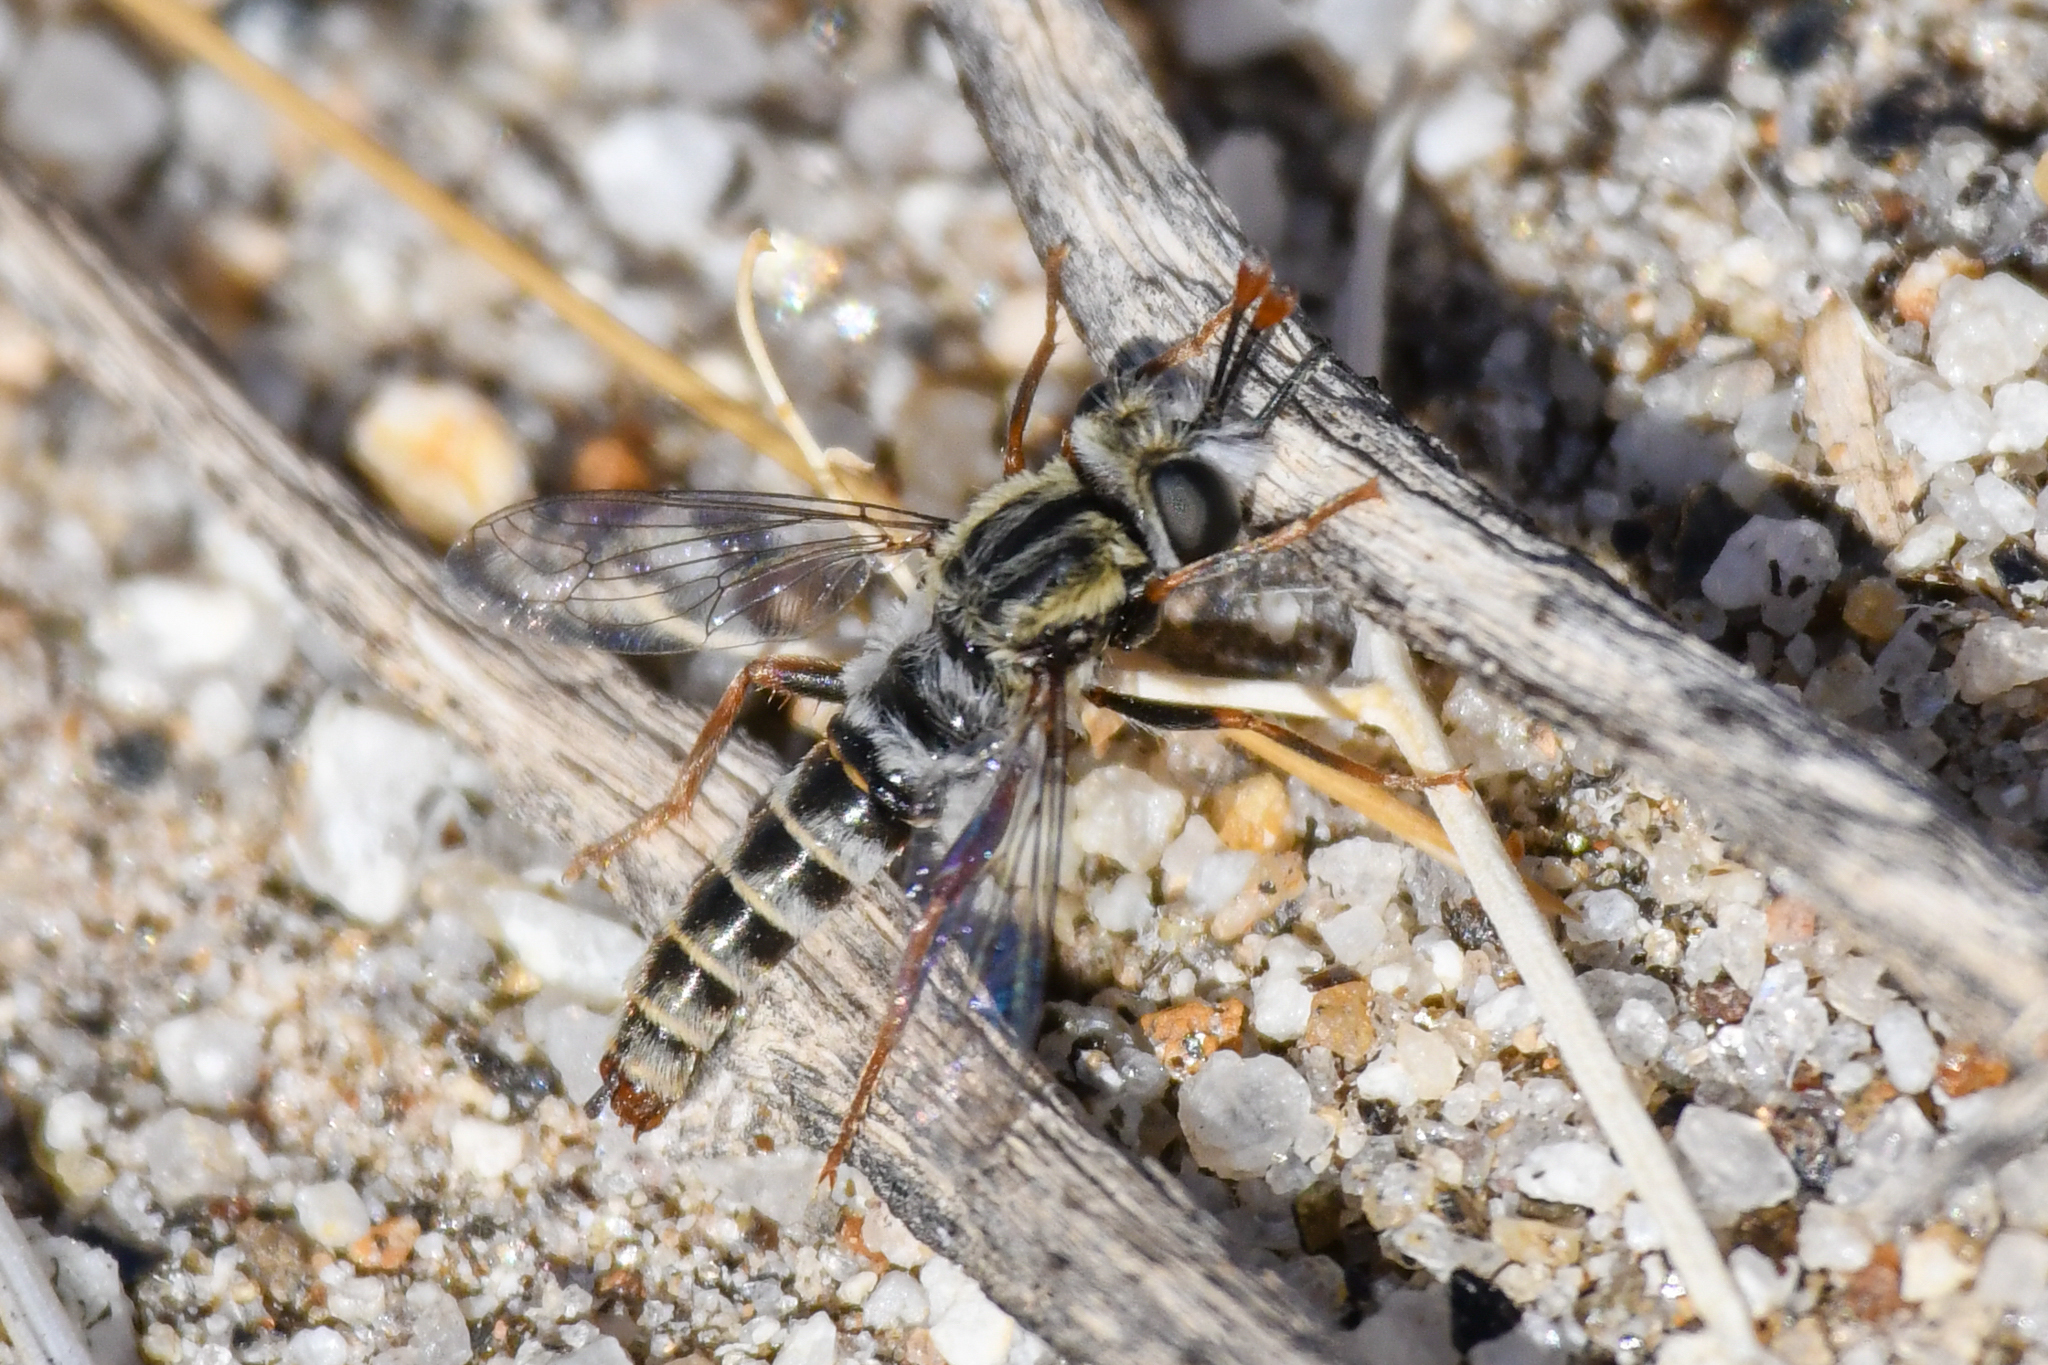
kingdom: Animalia
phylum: Arthropoda
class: Insecta
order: Diptera
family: Mydidae
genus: Pseudonomoneura
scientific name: Pseudonomoneura hirta
